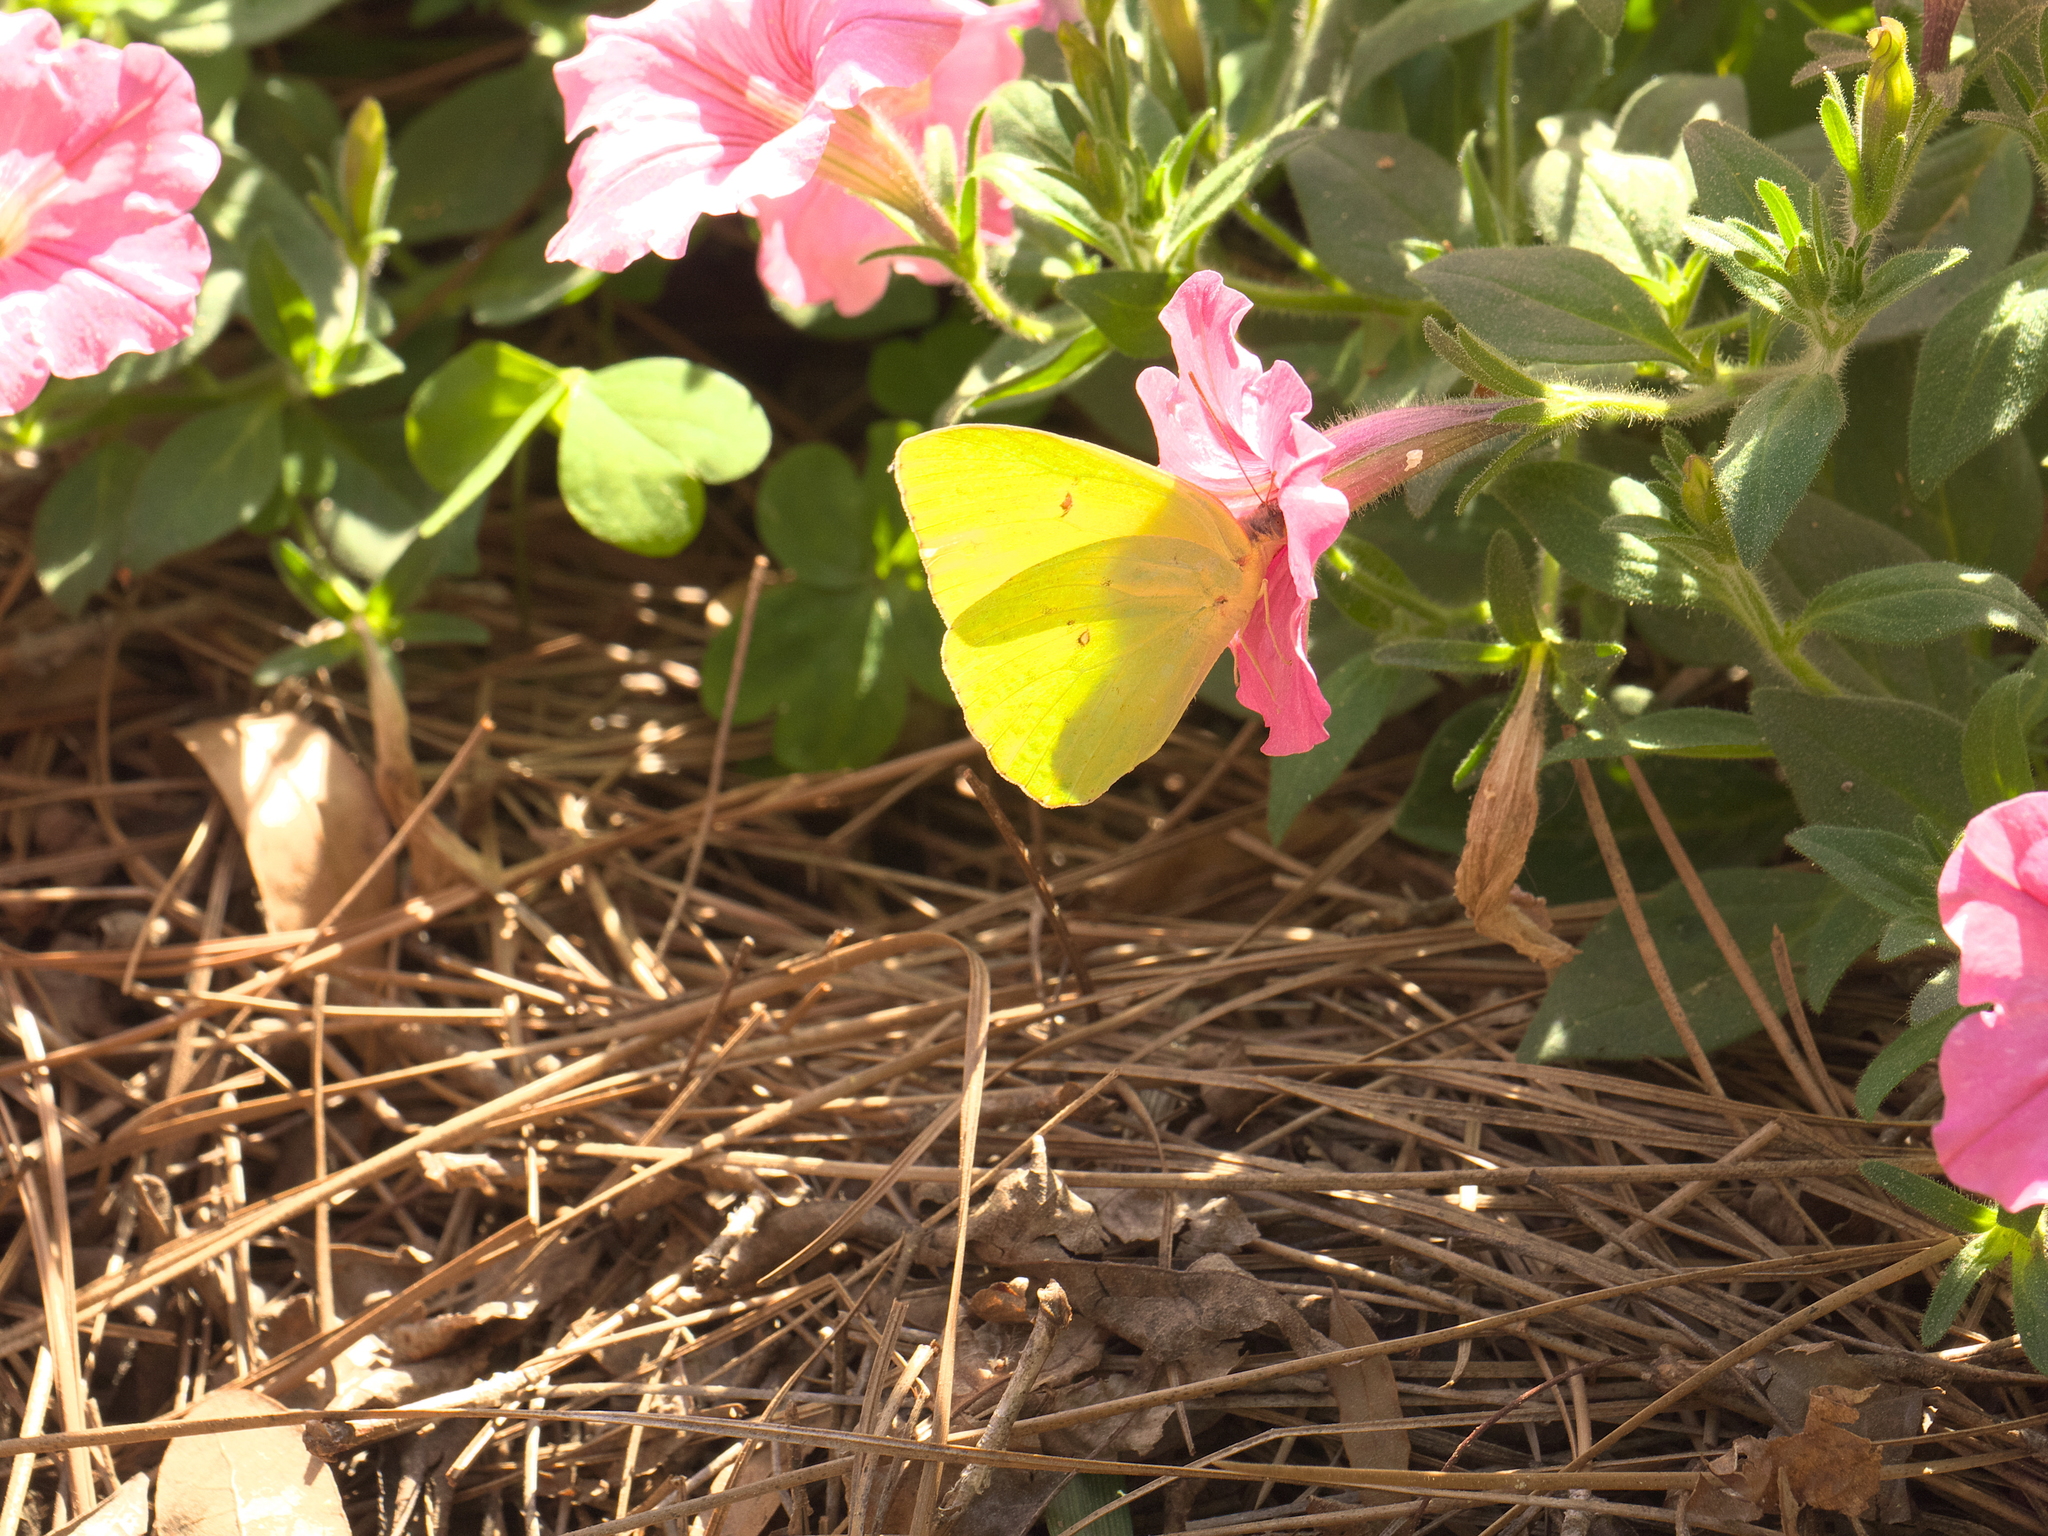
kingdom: Animalia
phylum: Arthropoda
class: Insecta
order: Lepidoptera
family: Pieridae
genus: Phoebis
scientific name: Phoebis sennae
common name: Cloudless sulphur
